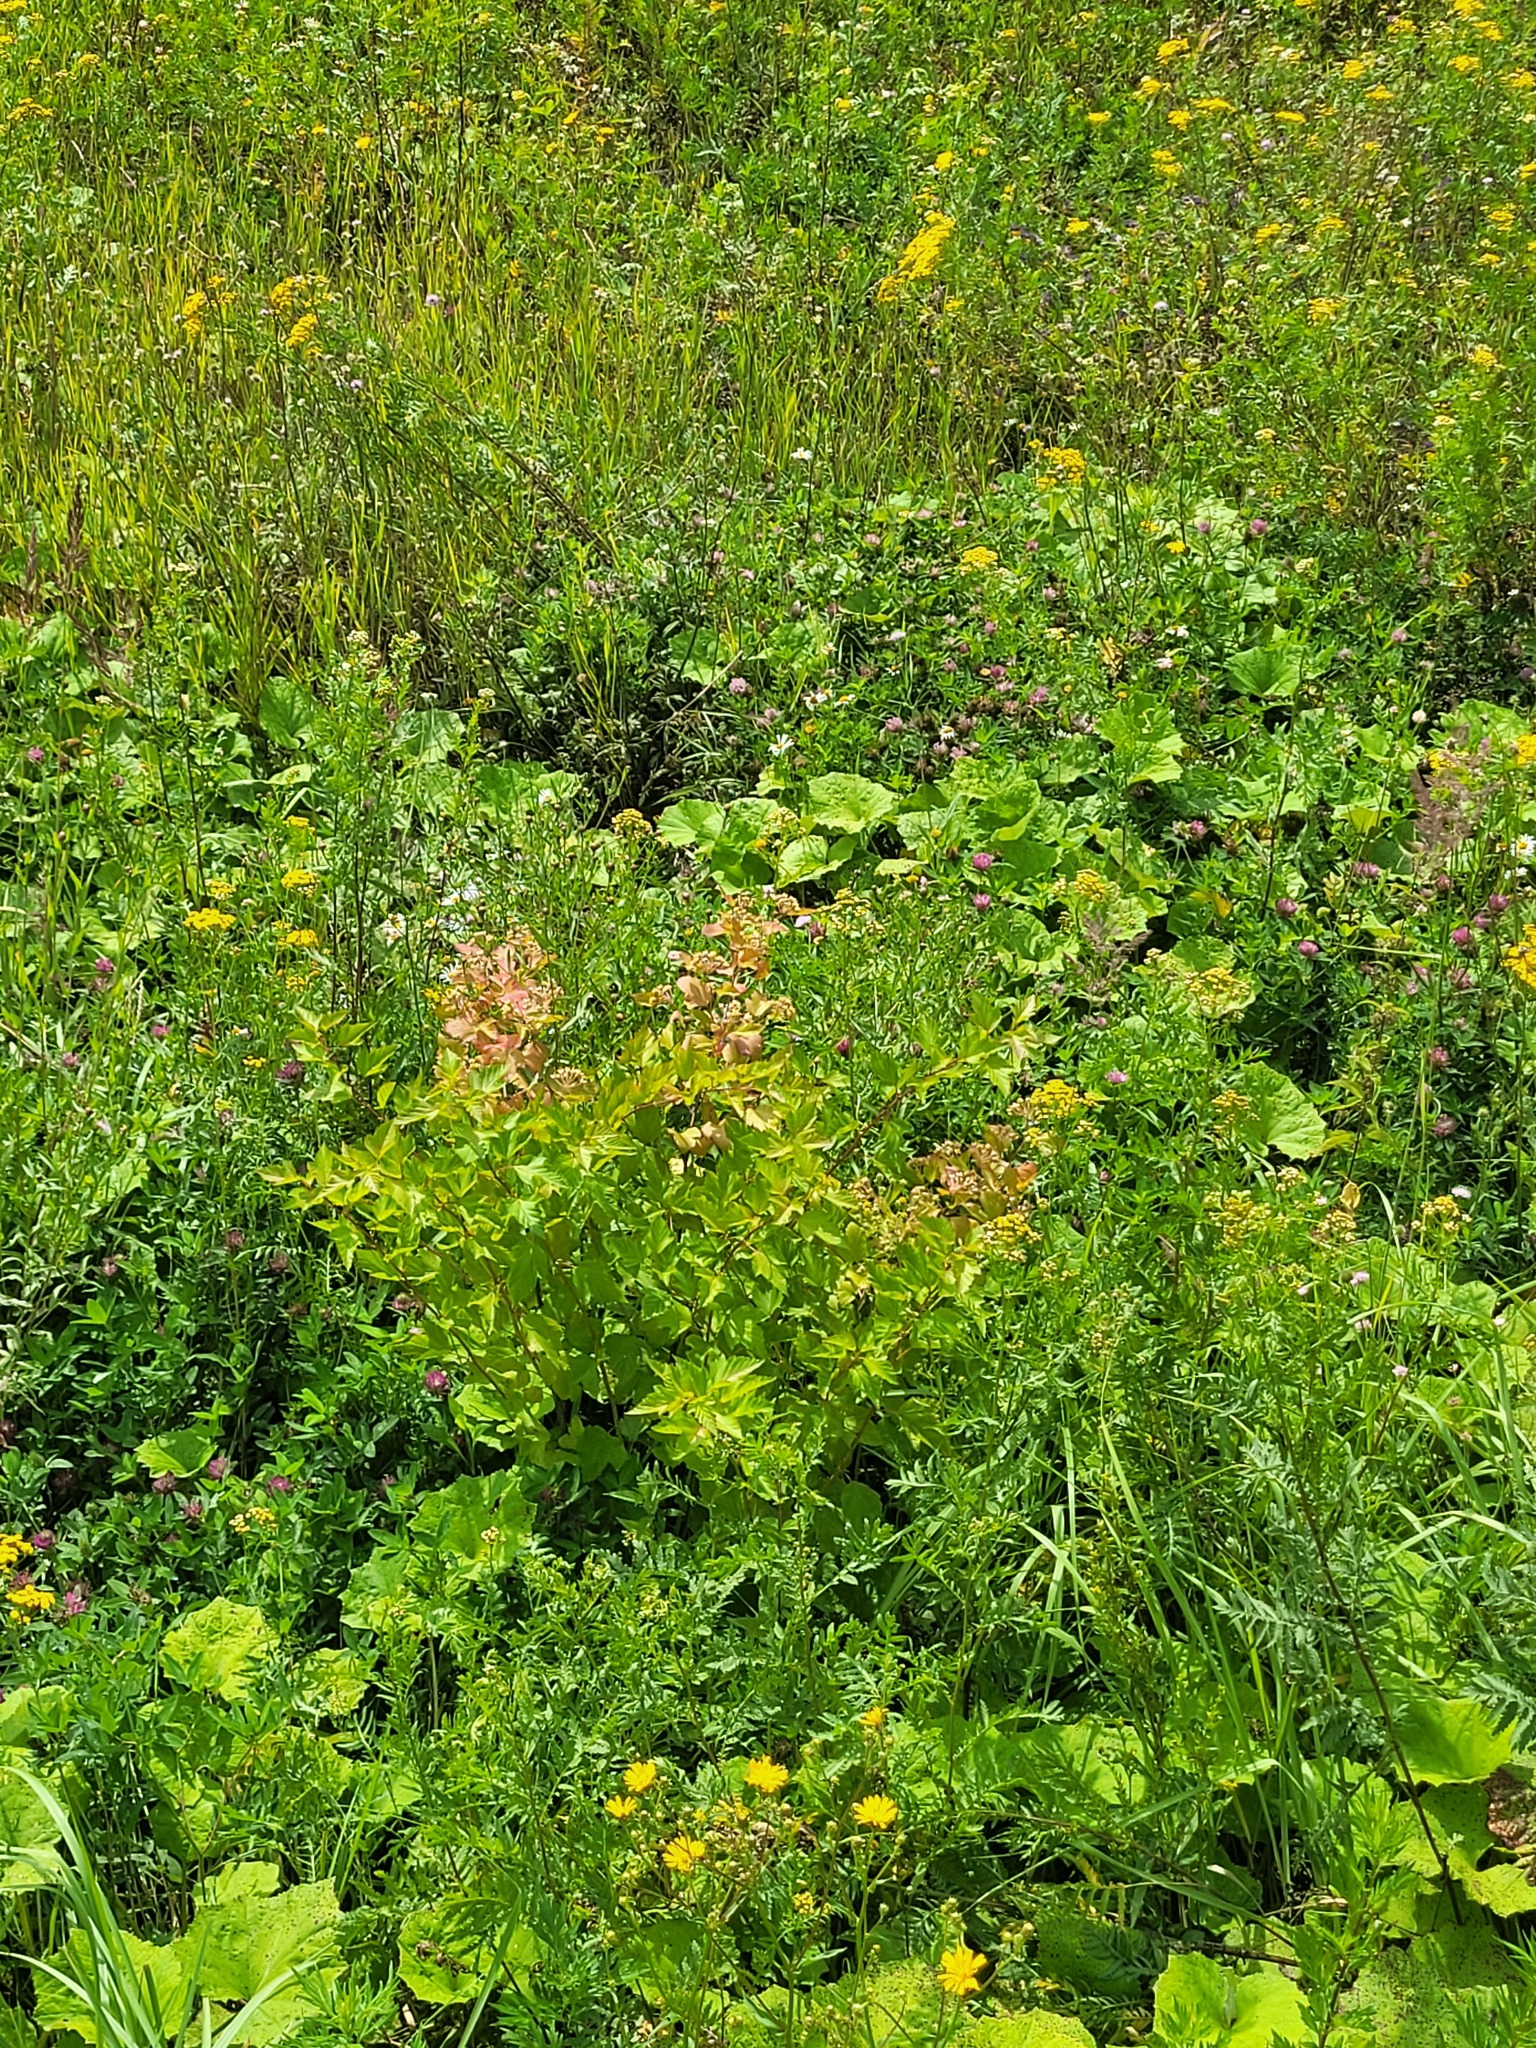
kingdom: Plantae
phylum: Tracheophyta
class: Magnoliopsida
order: Rosales
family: Rosaceae
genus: Physocarpus
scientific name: Physocarpus opulifolius
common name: Ninebark
